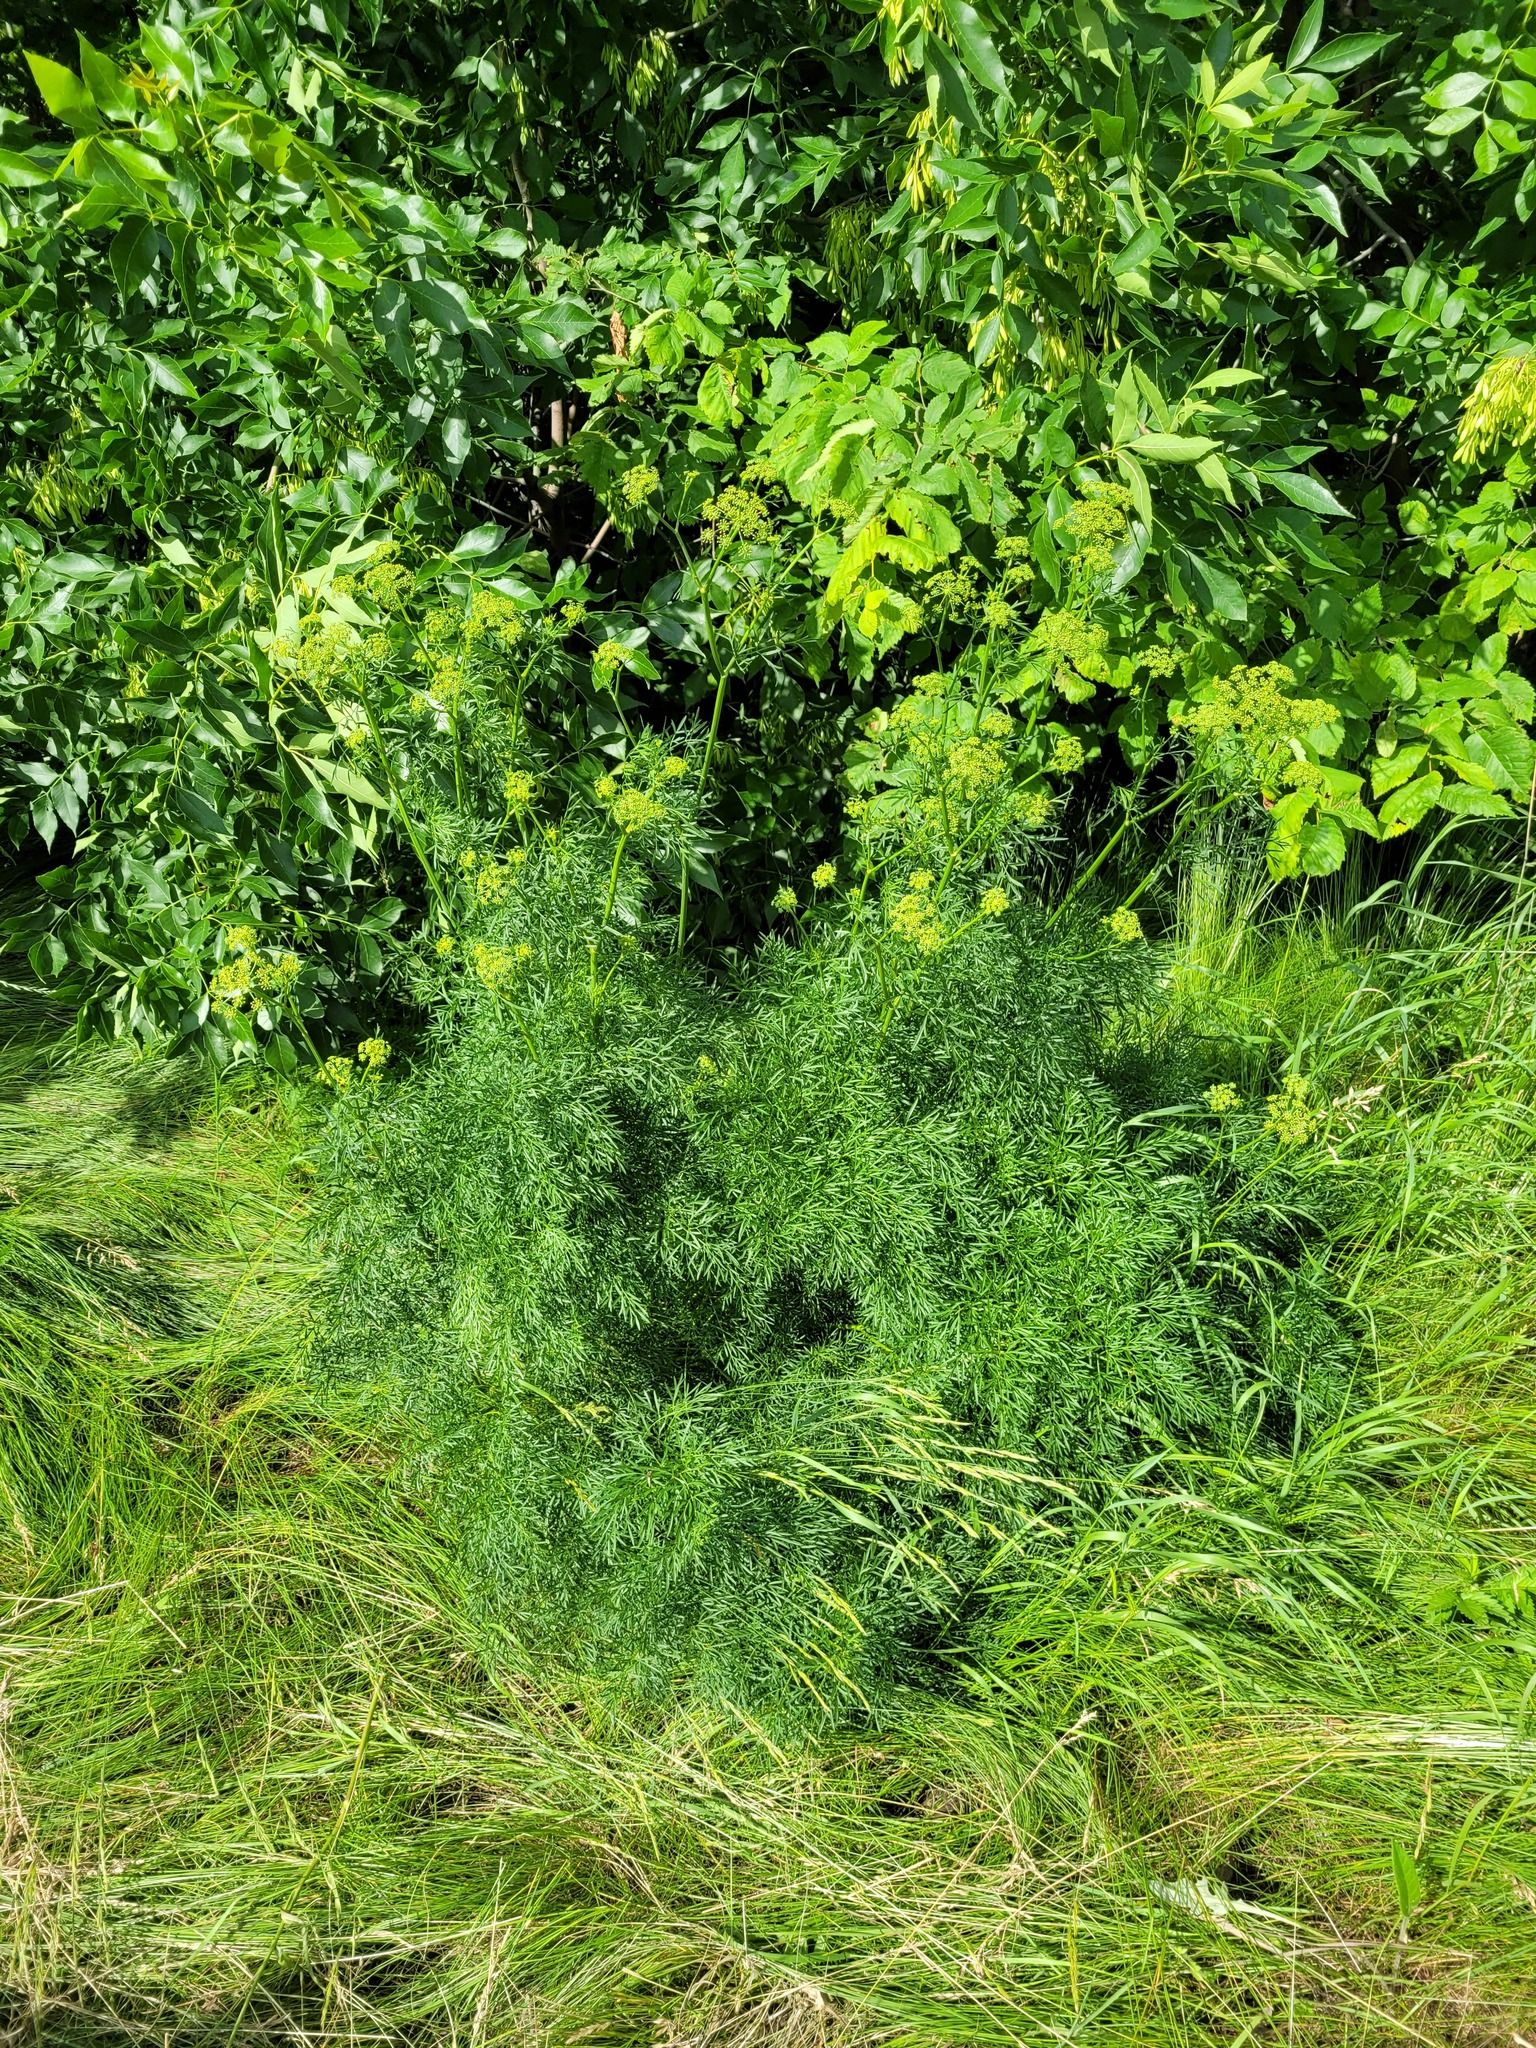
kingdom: Plantae
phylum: Tracheophyta
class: Magnoliopsida
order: Apiales
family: Apiaceae
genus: Silaum
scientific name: Silaum silaus
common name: Pepper-saxifrage
